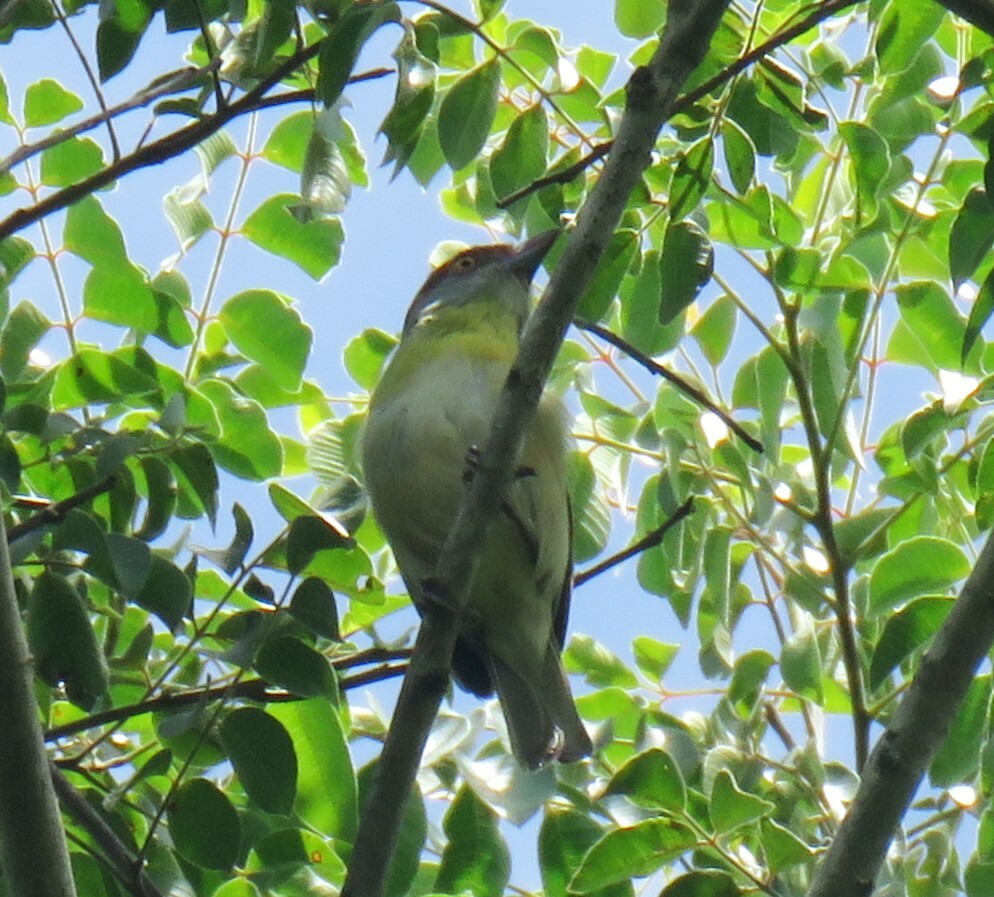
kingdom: Animalia
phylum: Chordata
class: Aves
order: Passeriformes
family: Vireonidae
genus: Cyclarhis
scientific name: Cyclarhis gujanensis
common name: Rufous-browed peppershrike
